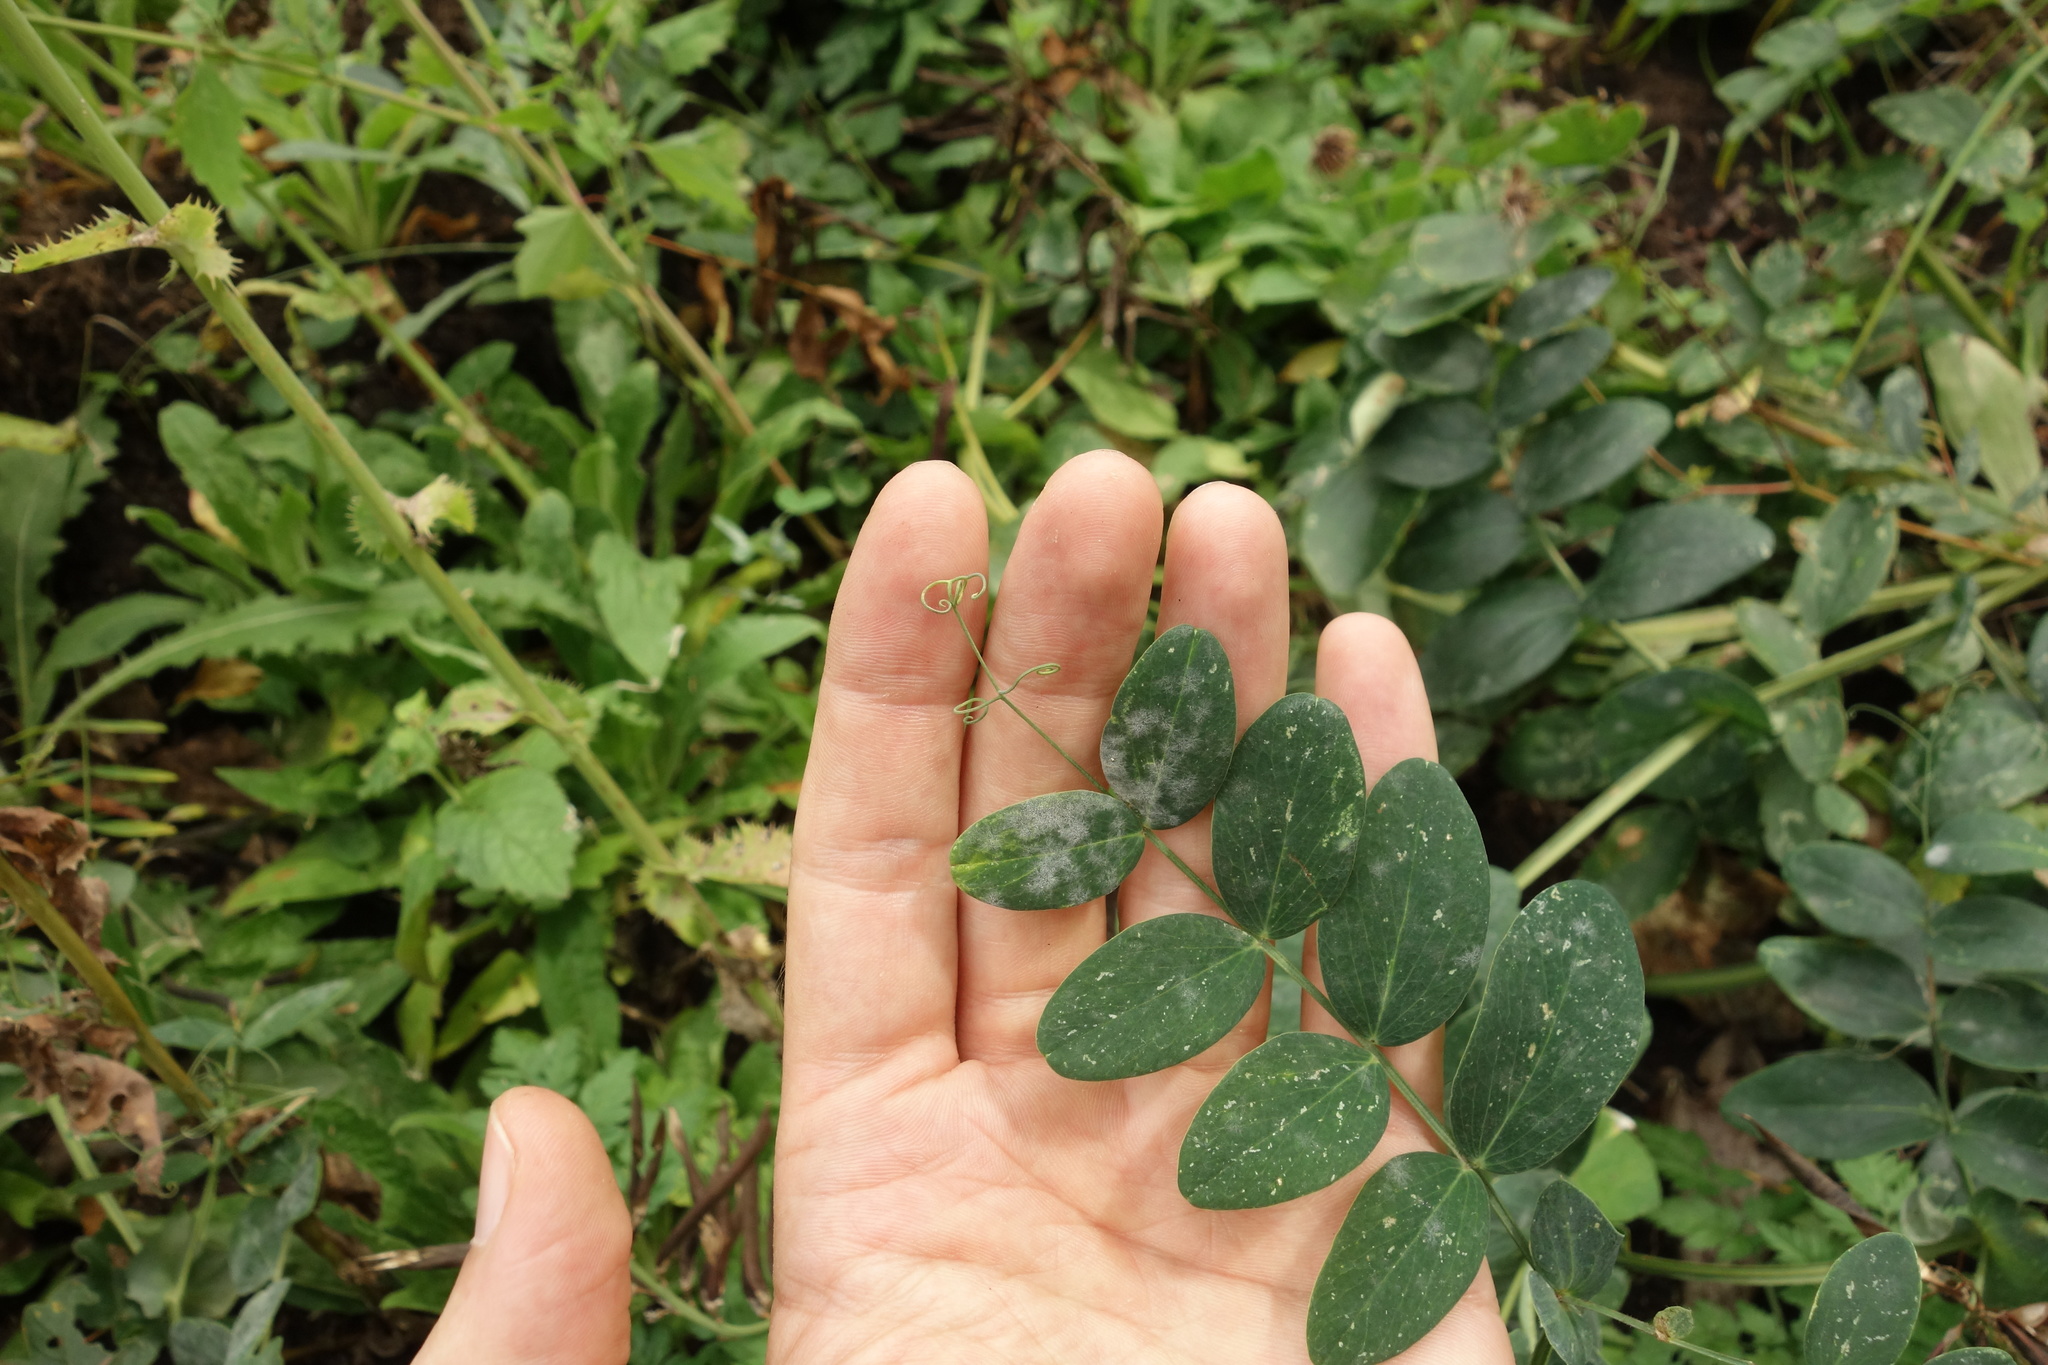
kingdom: Plantae
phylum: Tracheophyta
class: Magnoliopsida
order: Fabales
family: Fabaceae
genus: Lathyrus
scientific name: Lathyrus pisiformis
